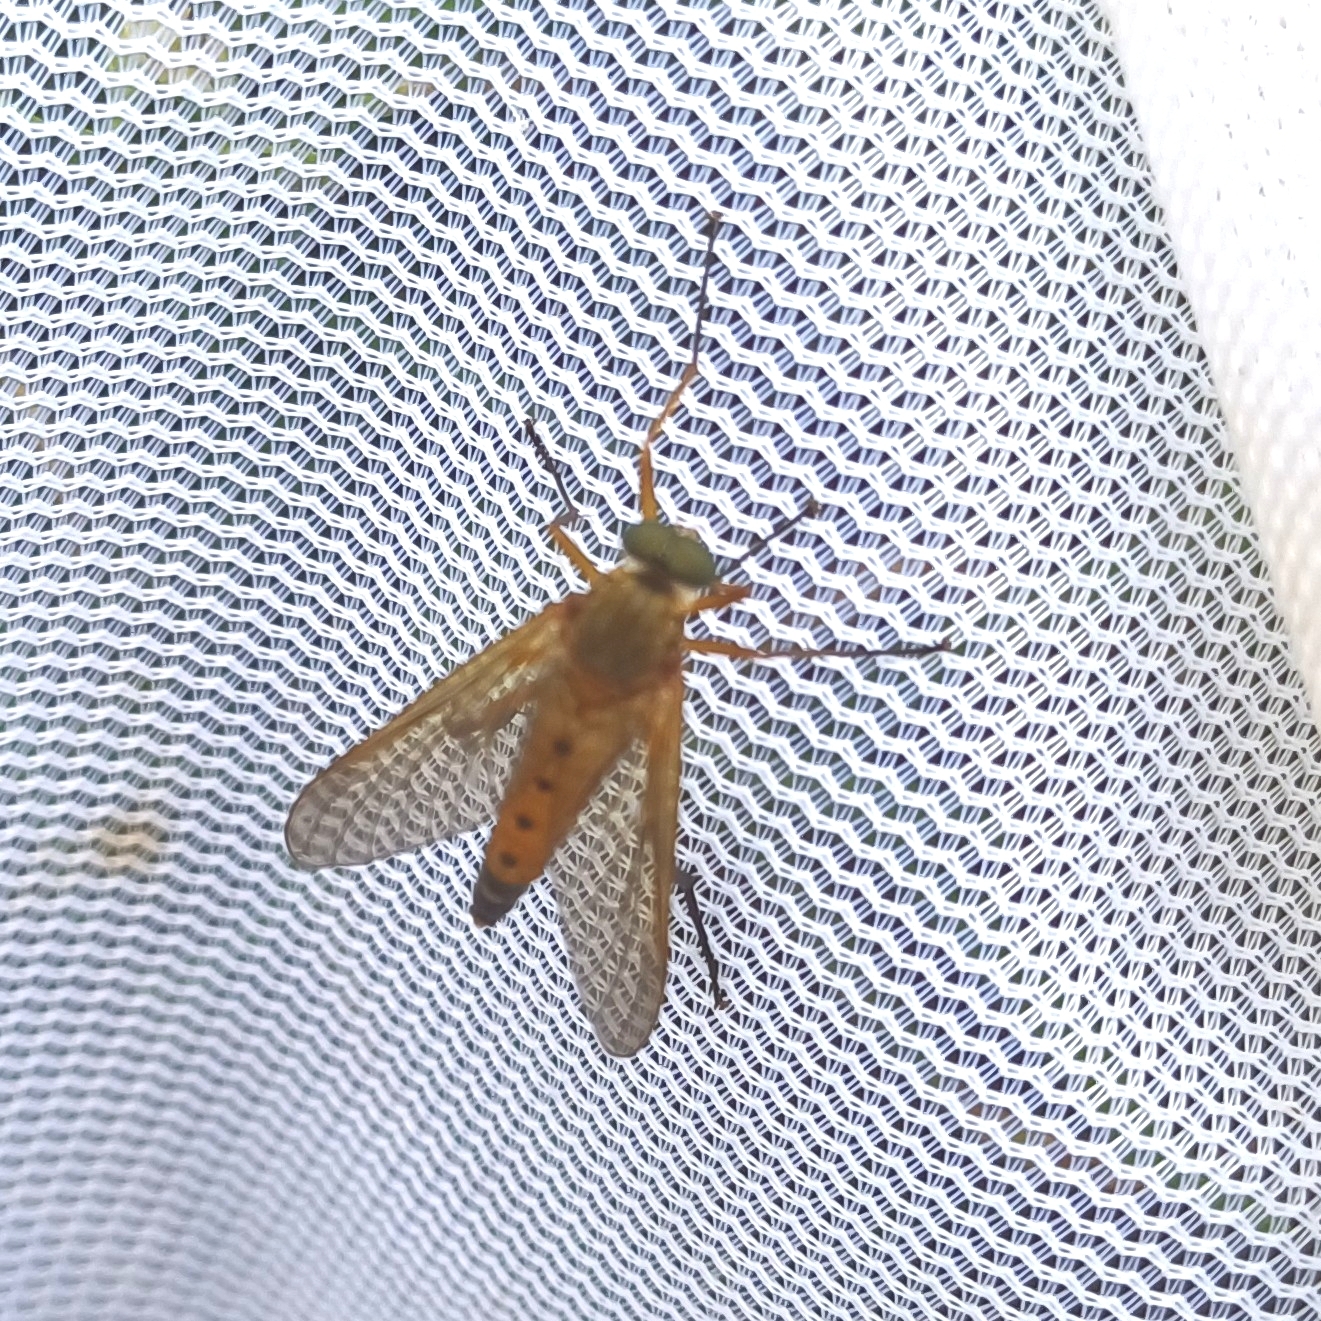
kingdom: Animalia
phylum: Arthropoda
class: Insecta
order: Diptera
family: Rhagionidae
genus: Rhagio
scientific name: Rhagio tringaria
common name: Marsh snipefly
